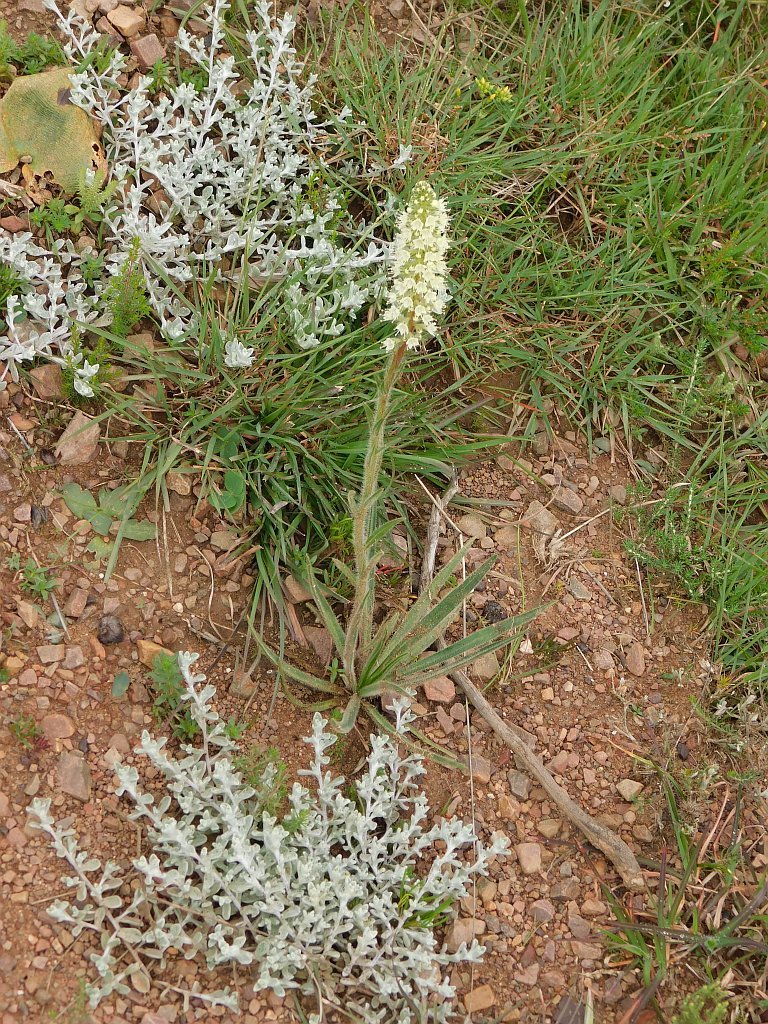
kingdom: Plantae
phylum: Tracheophyta
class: Magnoliopsida
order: Boraginales
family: Boraginaceae
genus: Lobostemon
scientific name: Lobostemon splendens
